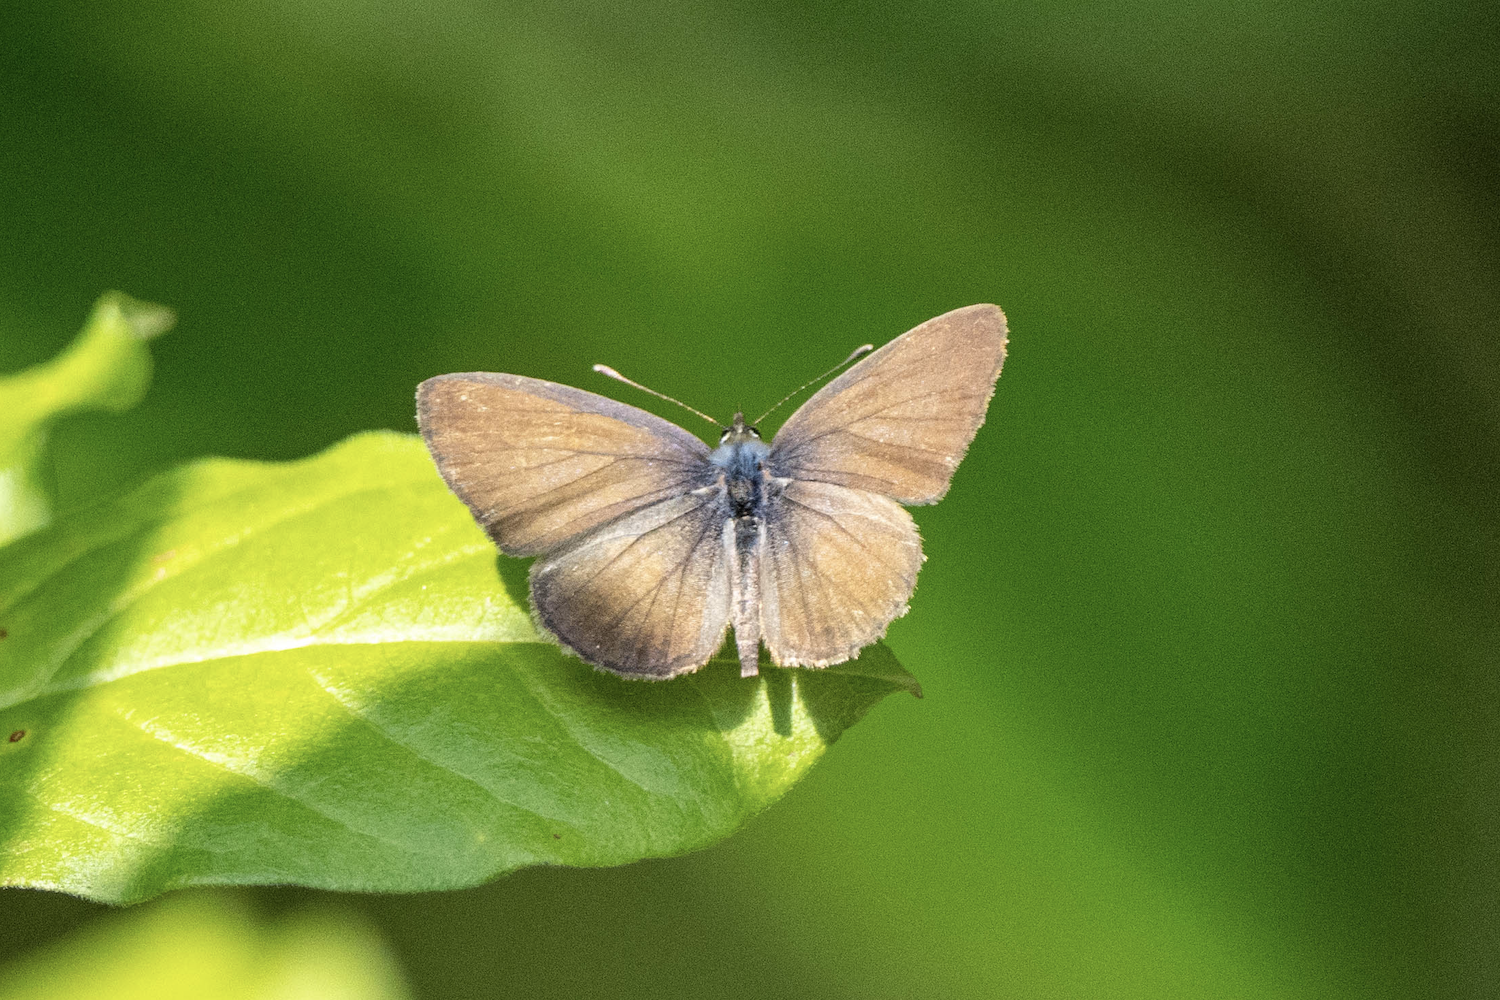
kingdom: Animalia
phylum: Arthropoda
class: Insecta
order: Lepidoptera
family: Lycaenidae
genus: Prosotas
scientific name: Prosotas dubiosa
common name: Tailless lineblue
